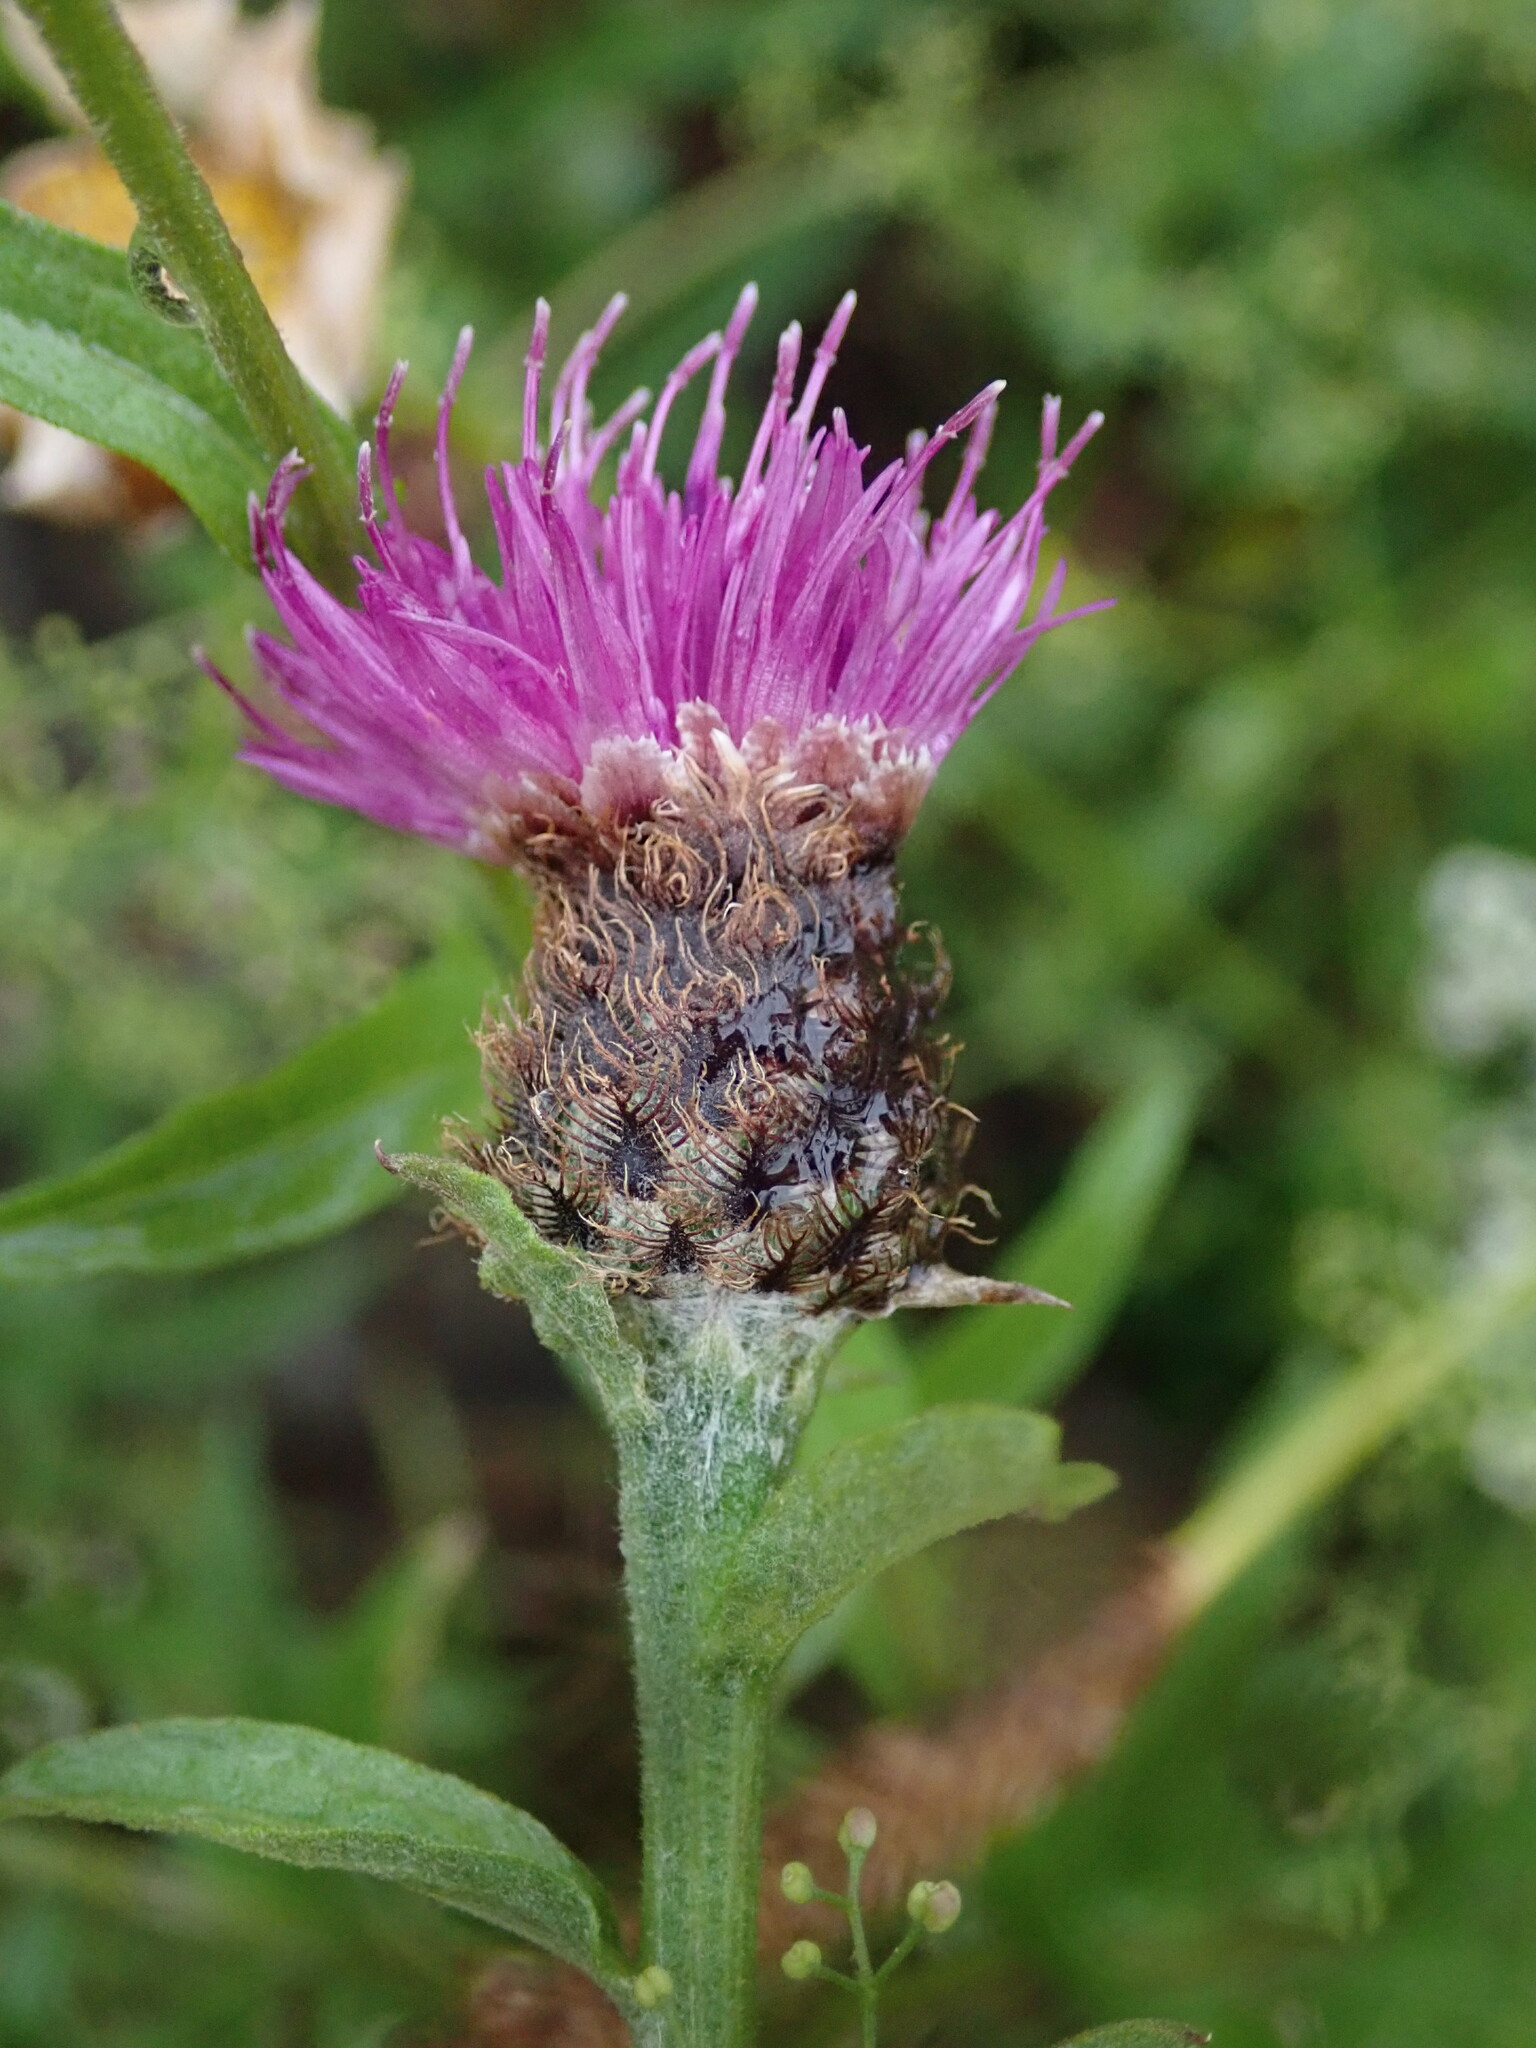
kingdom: Plantae
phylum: Tracheophyta
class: Magnoliopsida
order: Asterales
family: Asteraceae
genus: Centaurea
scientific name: Centaurea nigra
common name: Lesser knapweed
